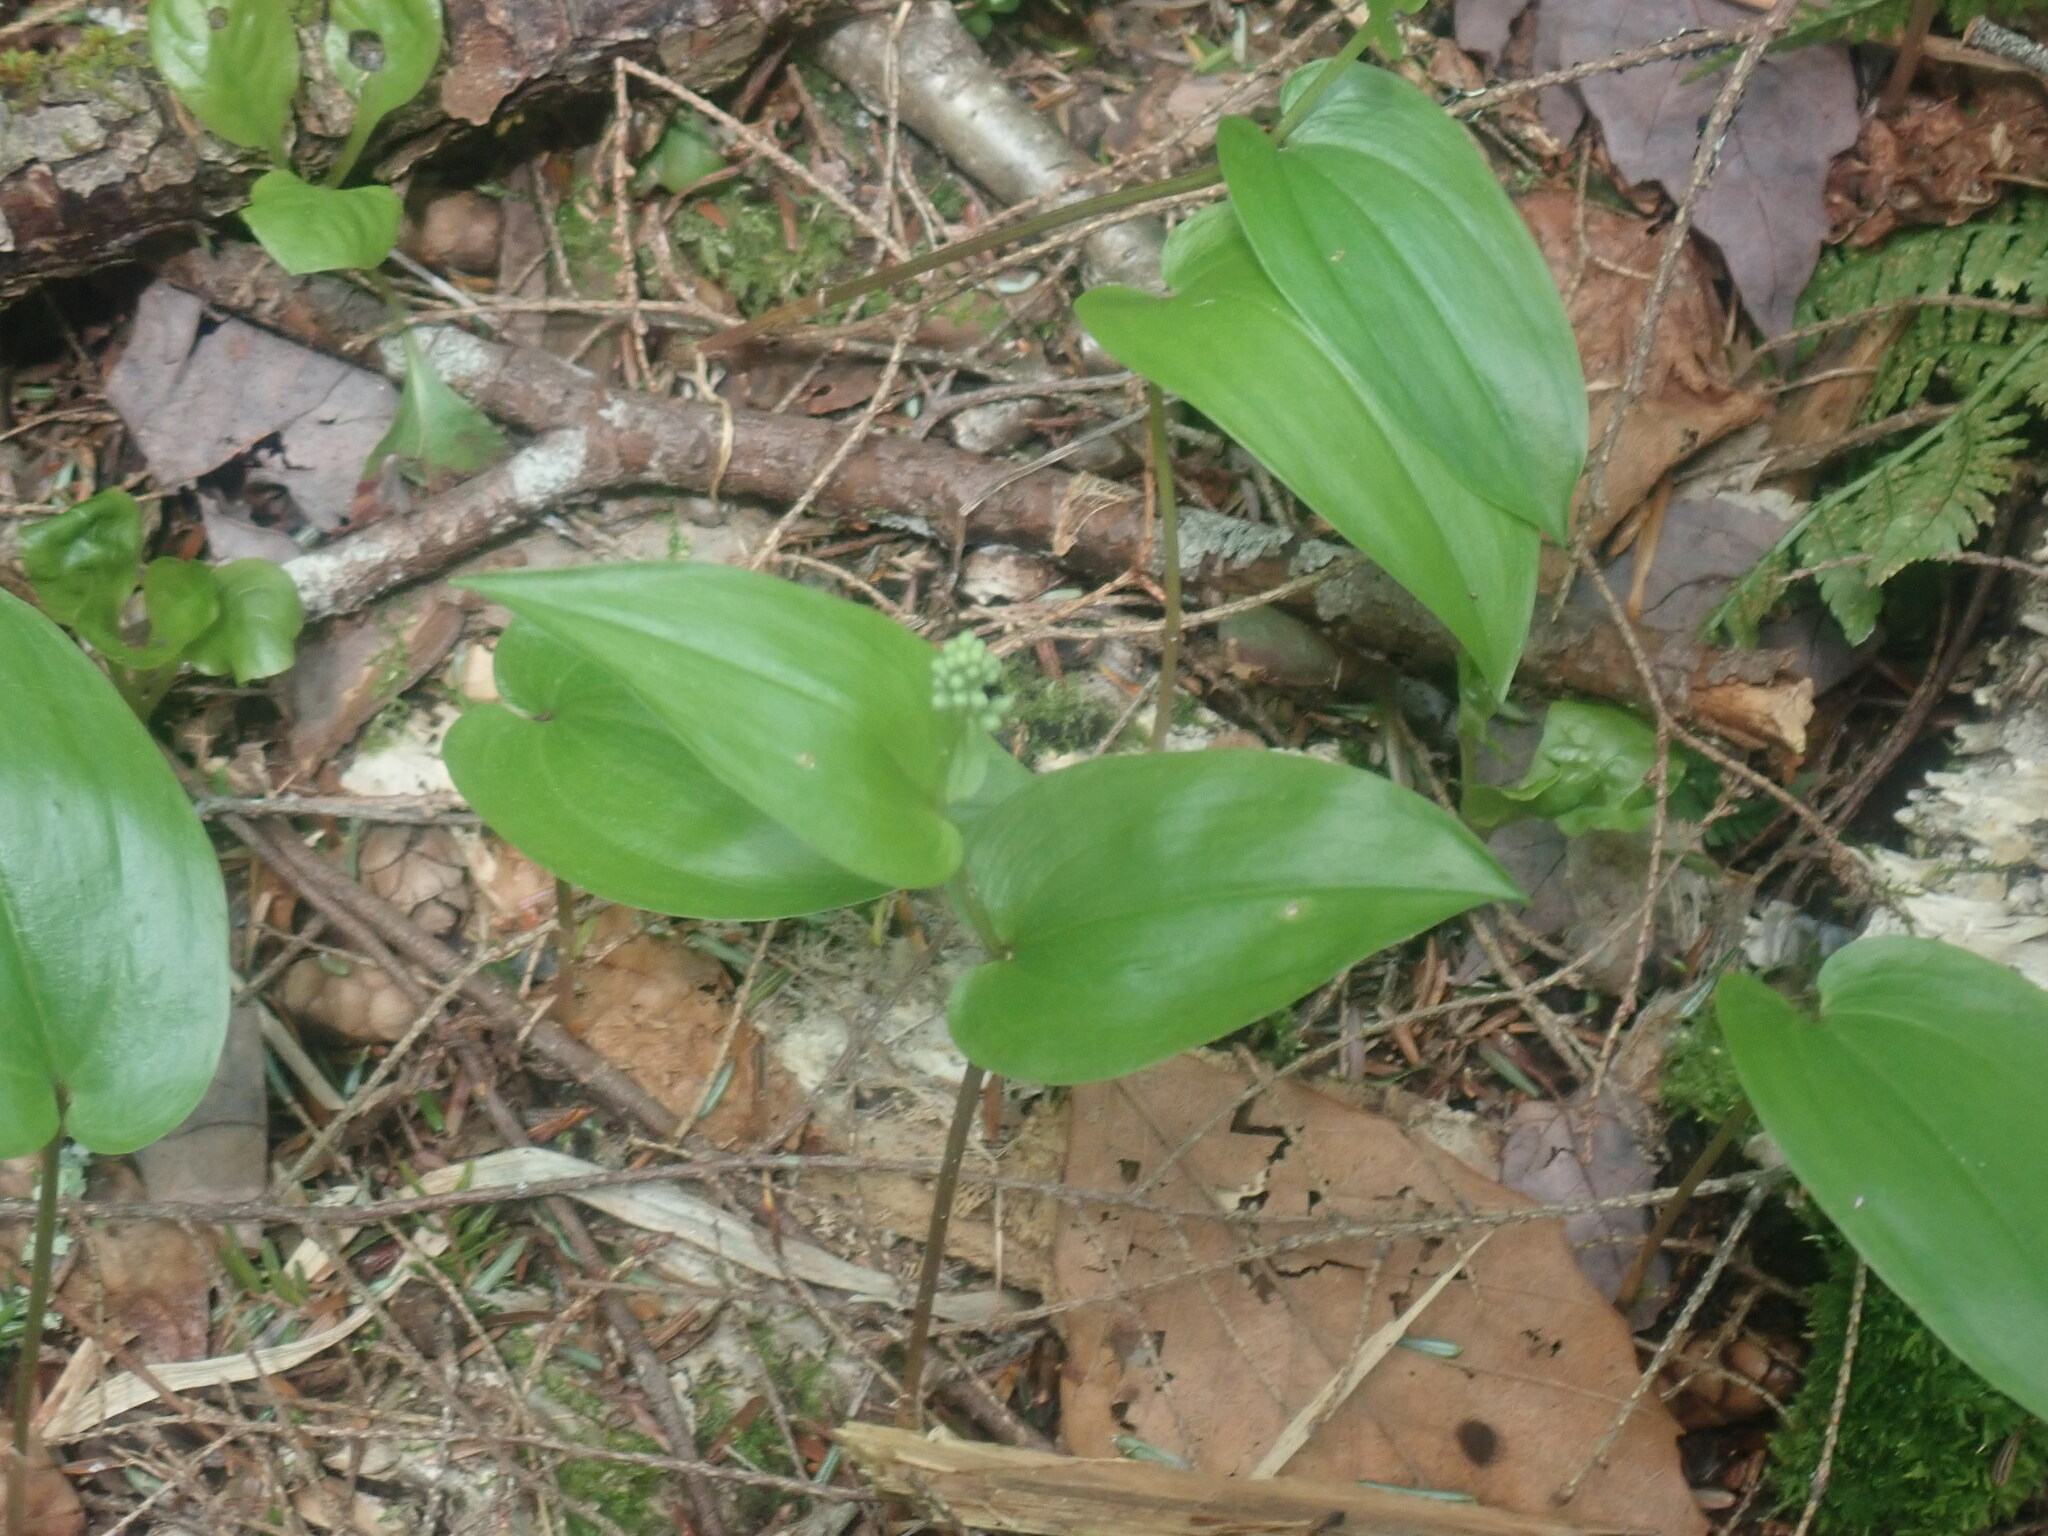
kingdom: Plantae
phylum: Tracheophyta
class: Liliopsida
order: Asparagales
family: Asparagaceae
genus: Maianthemum
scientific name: Maianthemum canadense
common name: False lily-of-the-valley
